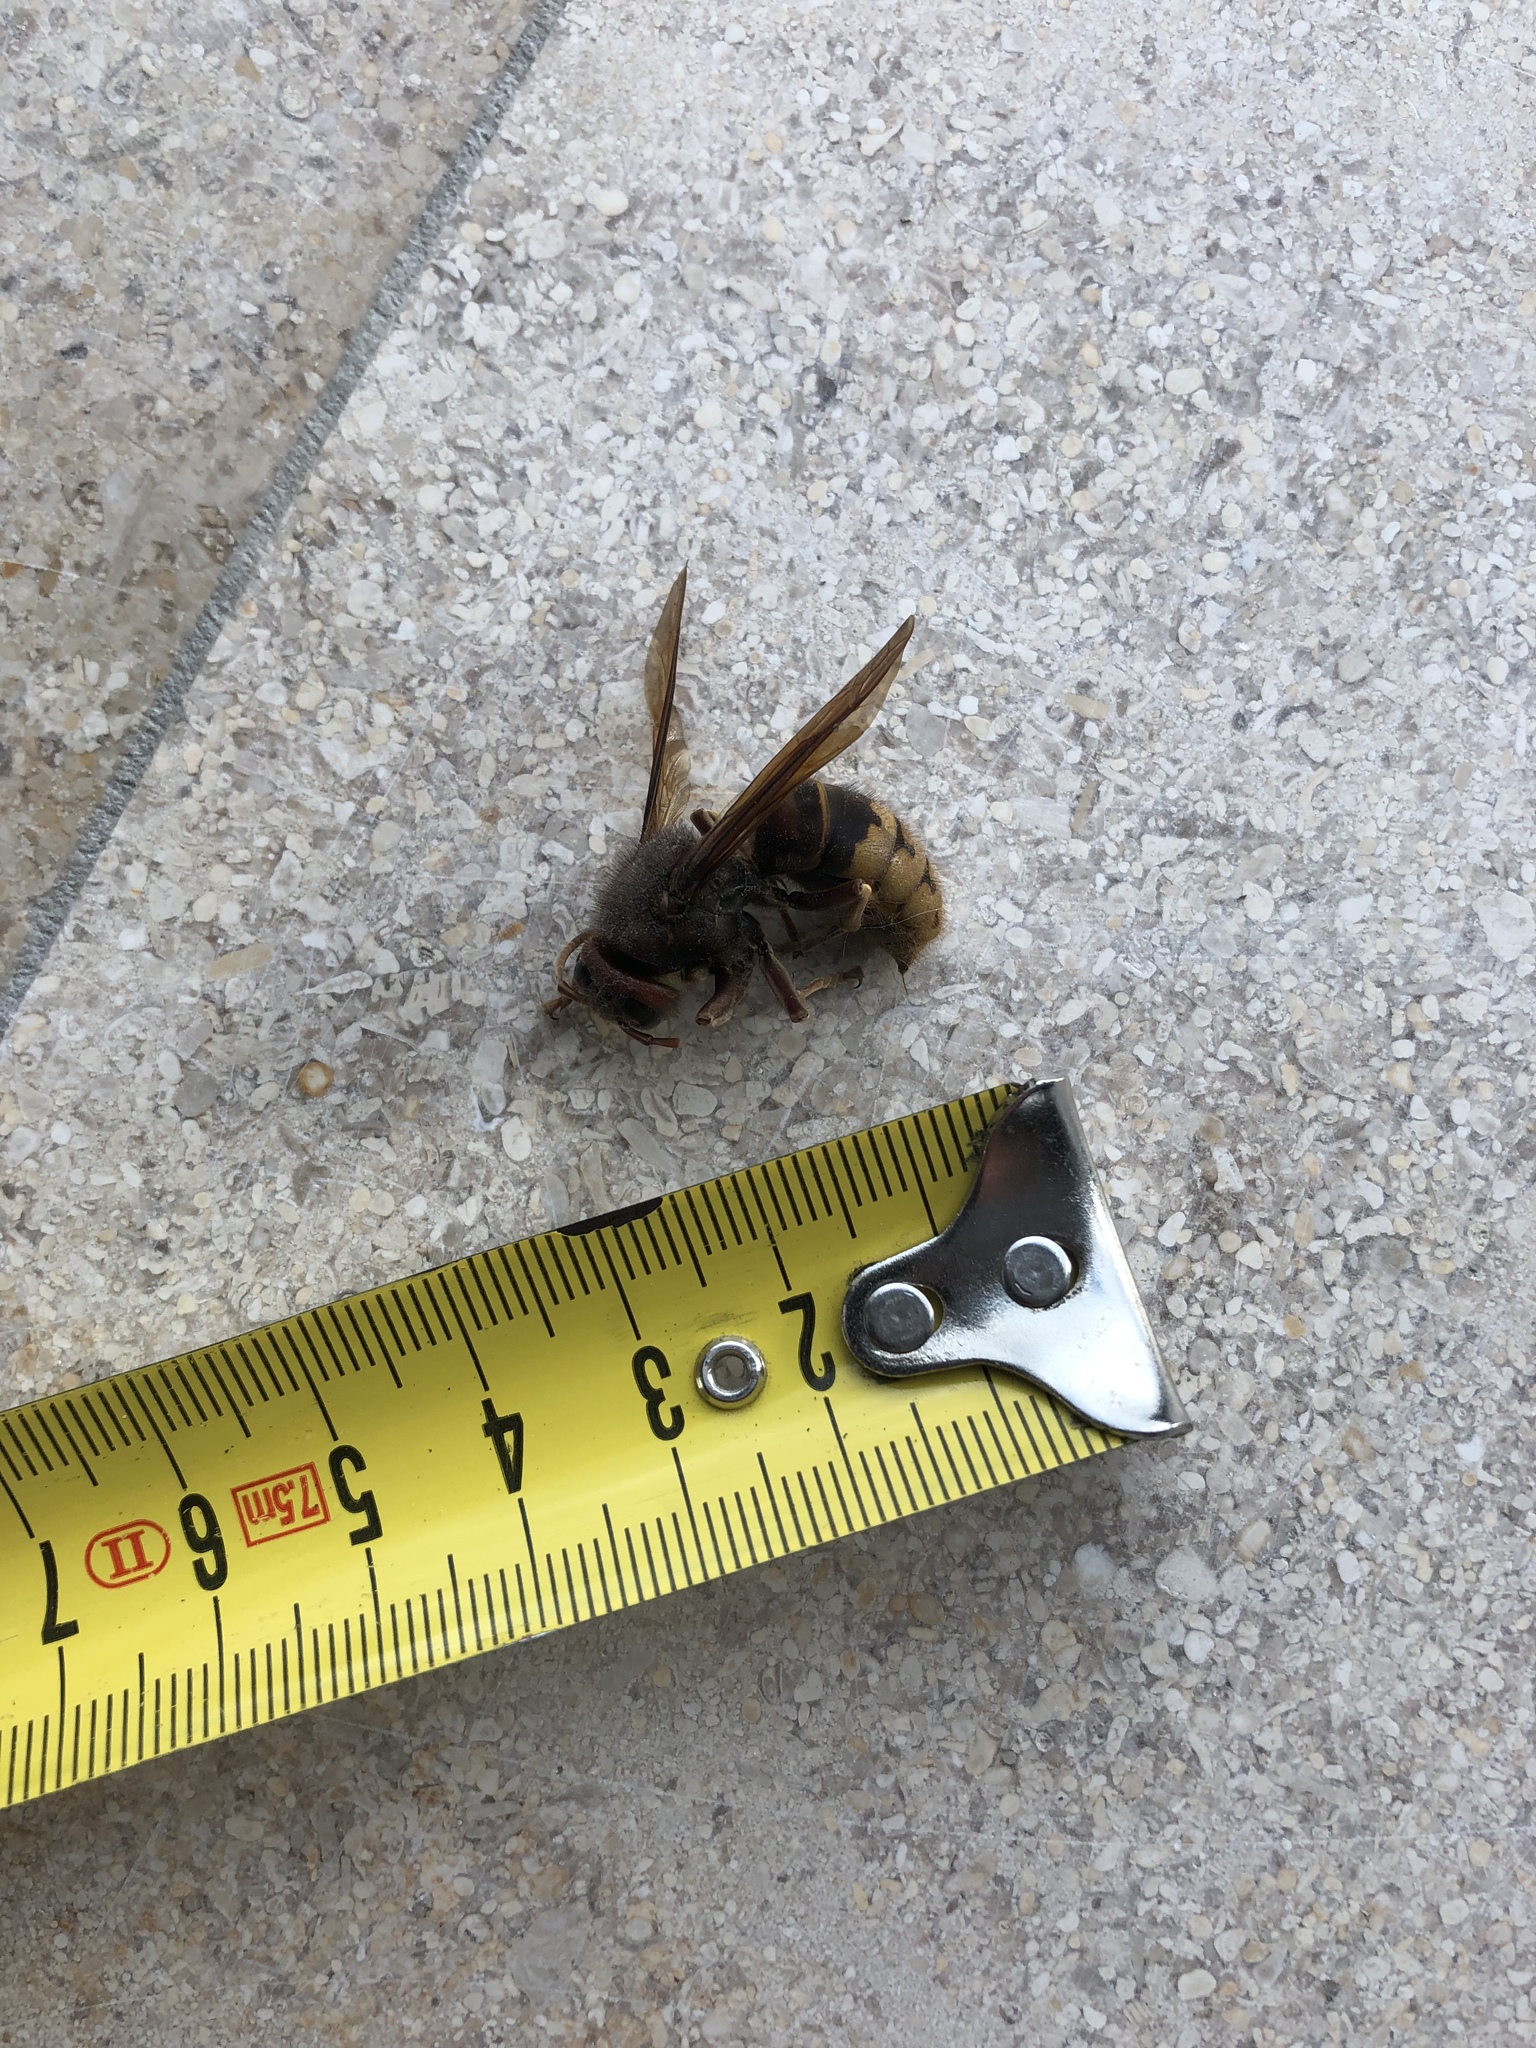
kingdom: Animalia
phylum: Arthropoda
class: Insecta
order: Hymenoptera
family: Vespidae
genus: Vespa
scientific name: Vespa crabro
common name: Hornet
